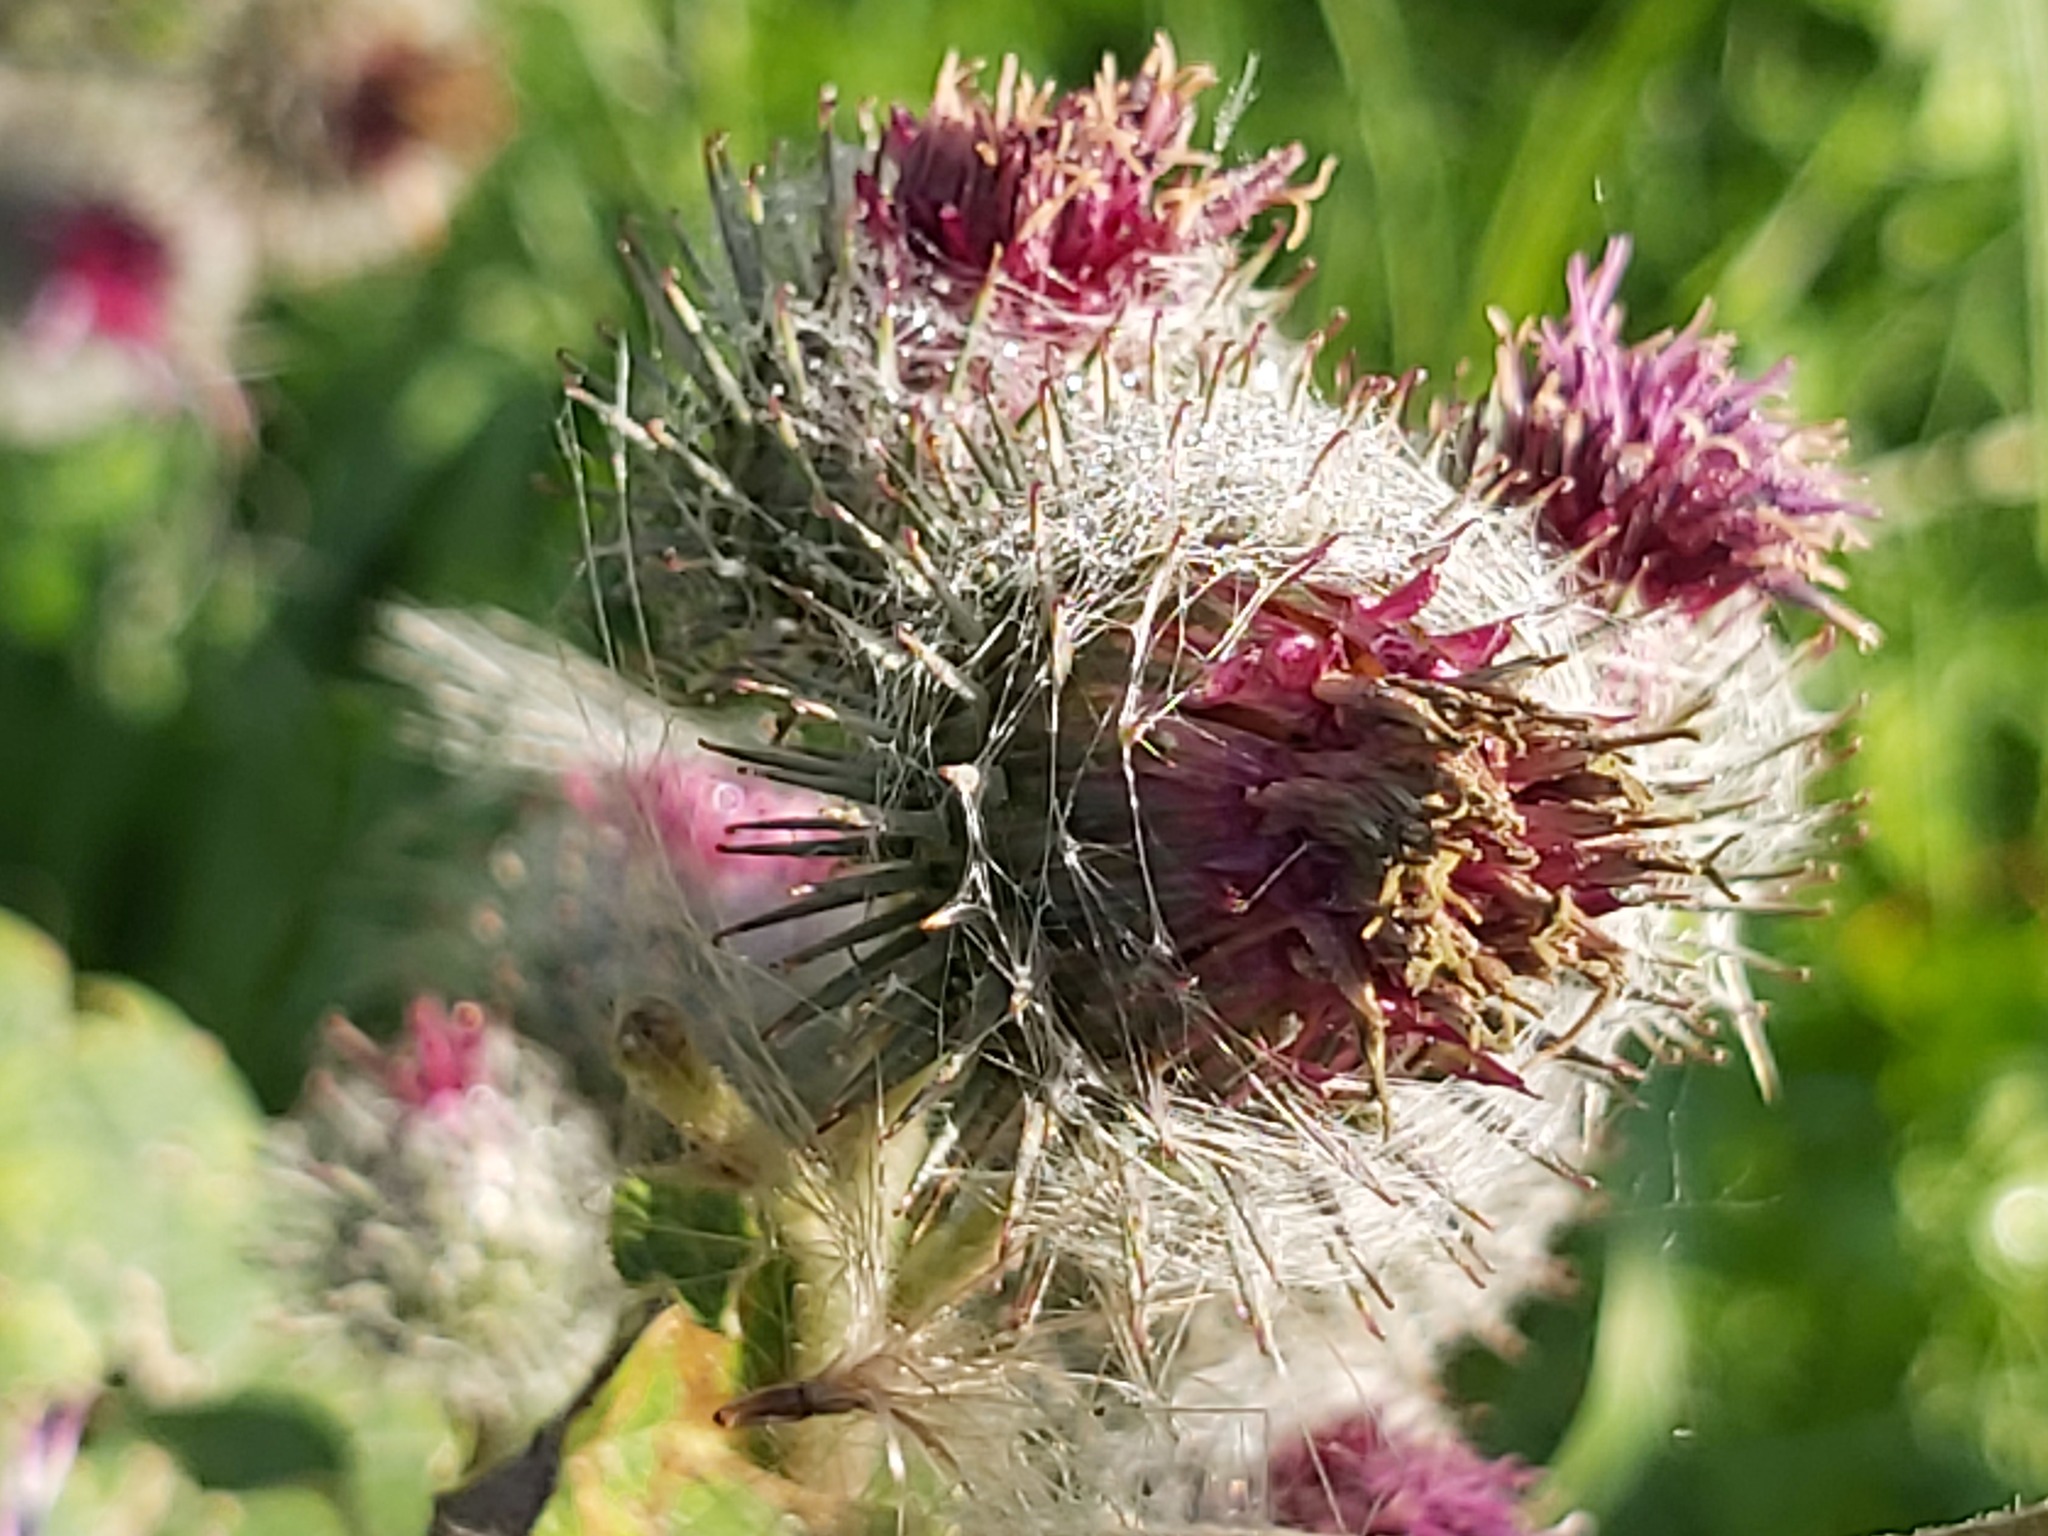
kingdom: Plantae
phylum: Tracheophyta
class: Magnoliopsida
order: Asterales
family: Asteraceae
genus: Arctium
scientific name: Arctium tomentosum
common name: Woolly burdock
